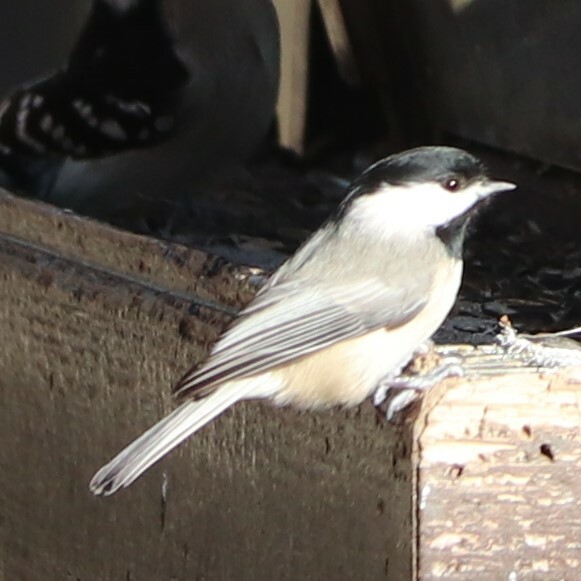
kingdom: Animalia
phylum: Chordata
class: Aves
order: Passeriformes
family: Paridae
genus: Poecile
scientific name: Poecile carolinensis
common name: Carolina chickadee
